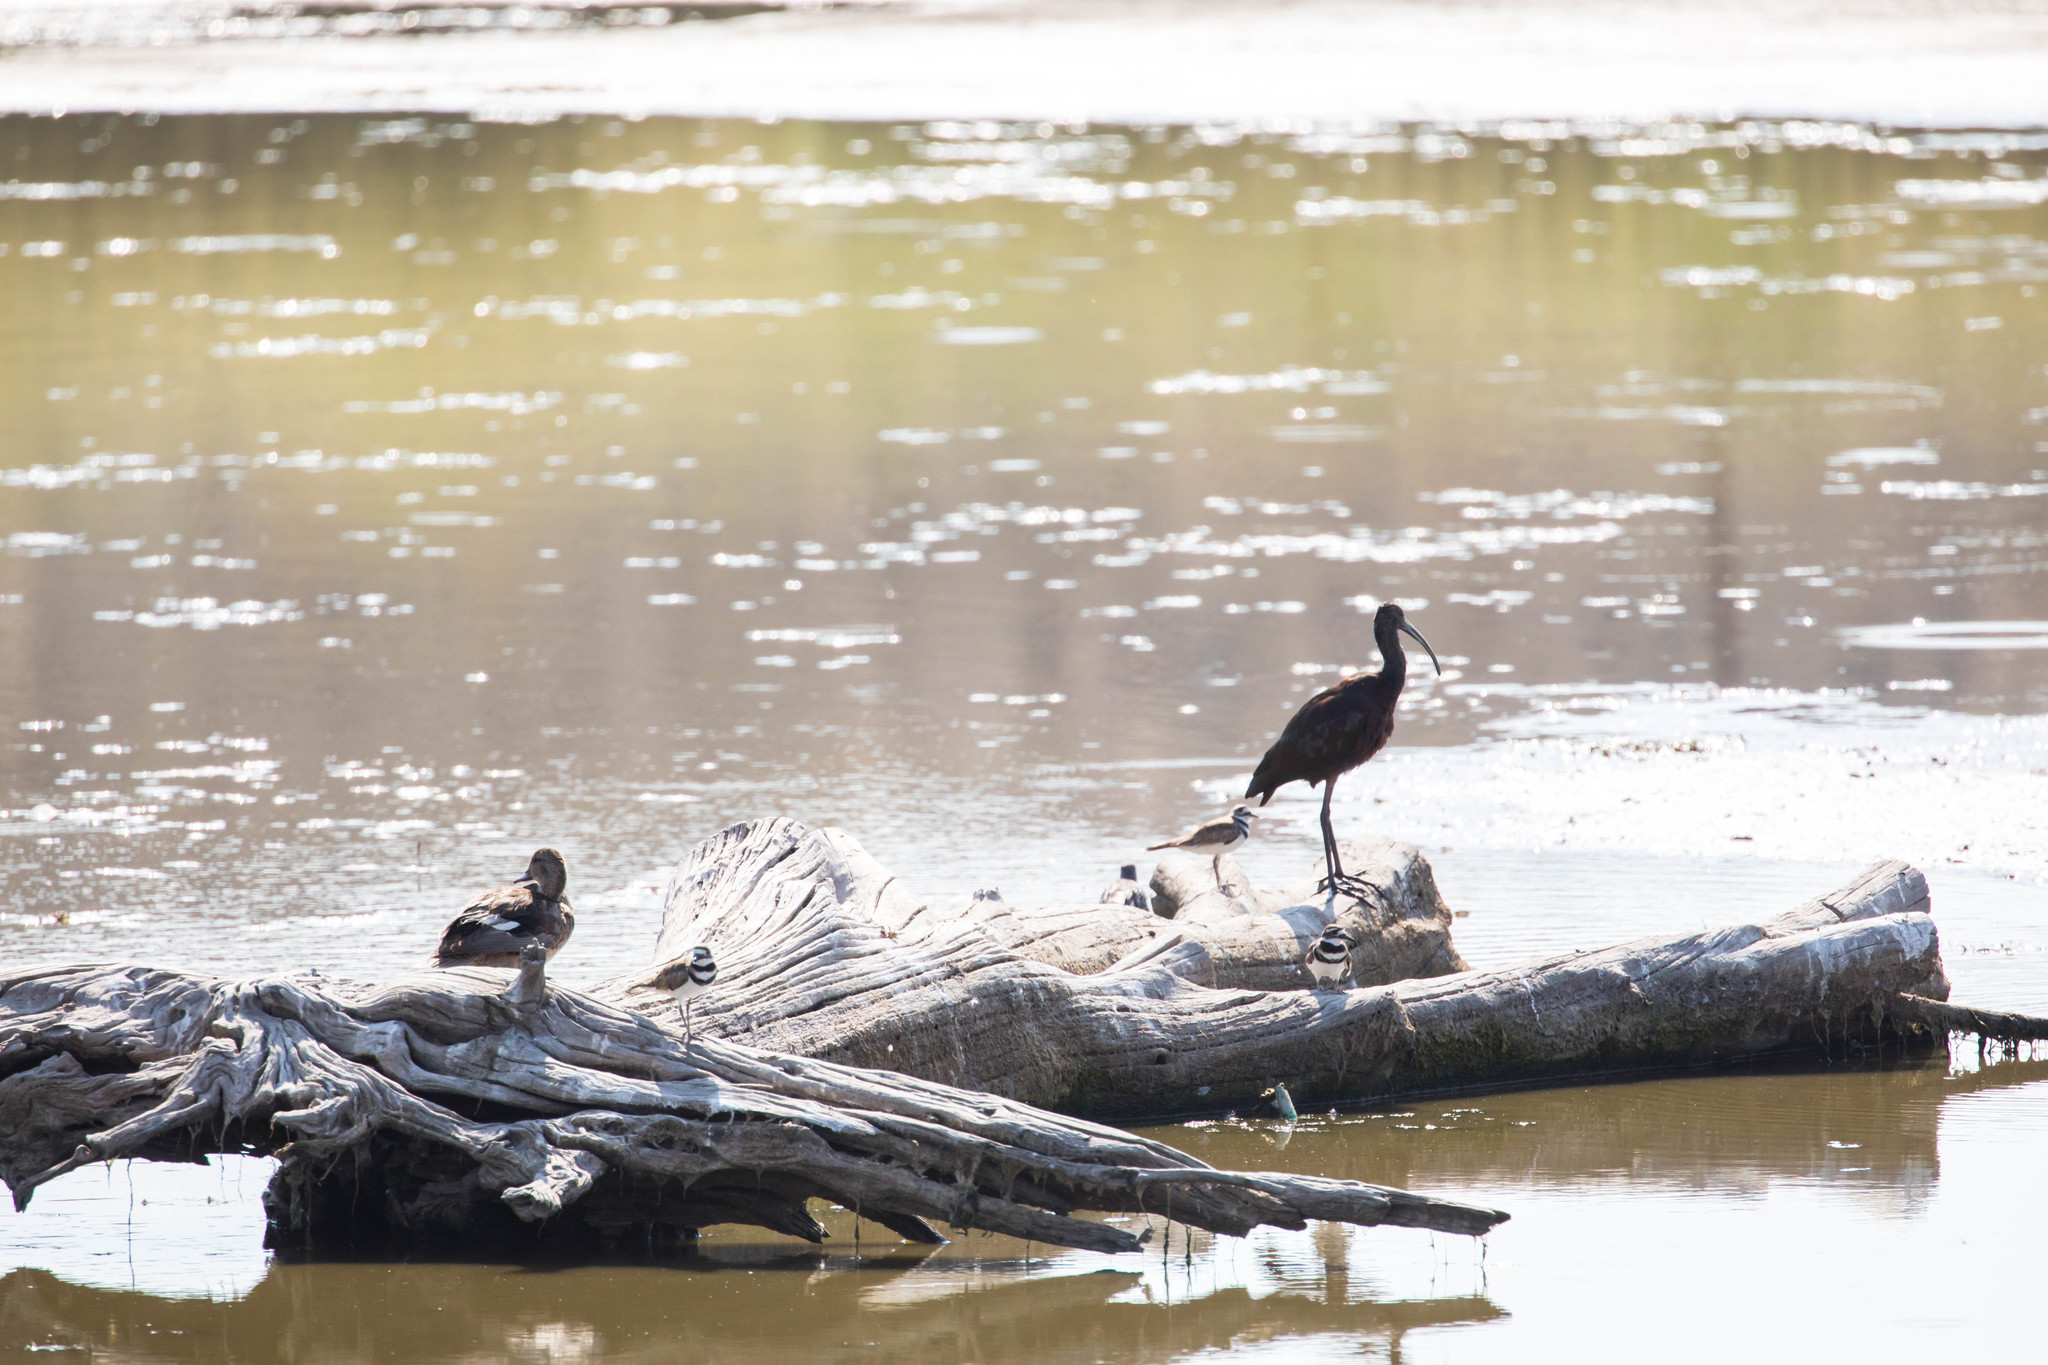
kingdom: Animalia
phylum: Chordata
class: Aves
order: Pelecaniformes
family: Threskiornithidae
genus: Plegadis
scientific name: Plegadis chihi
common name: White-faced ibis
